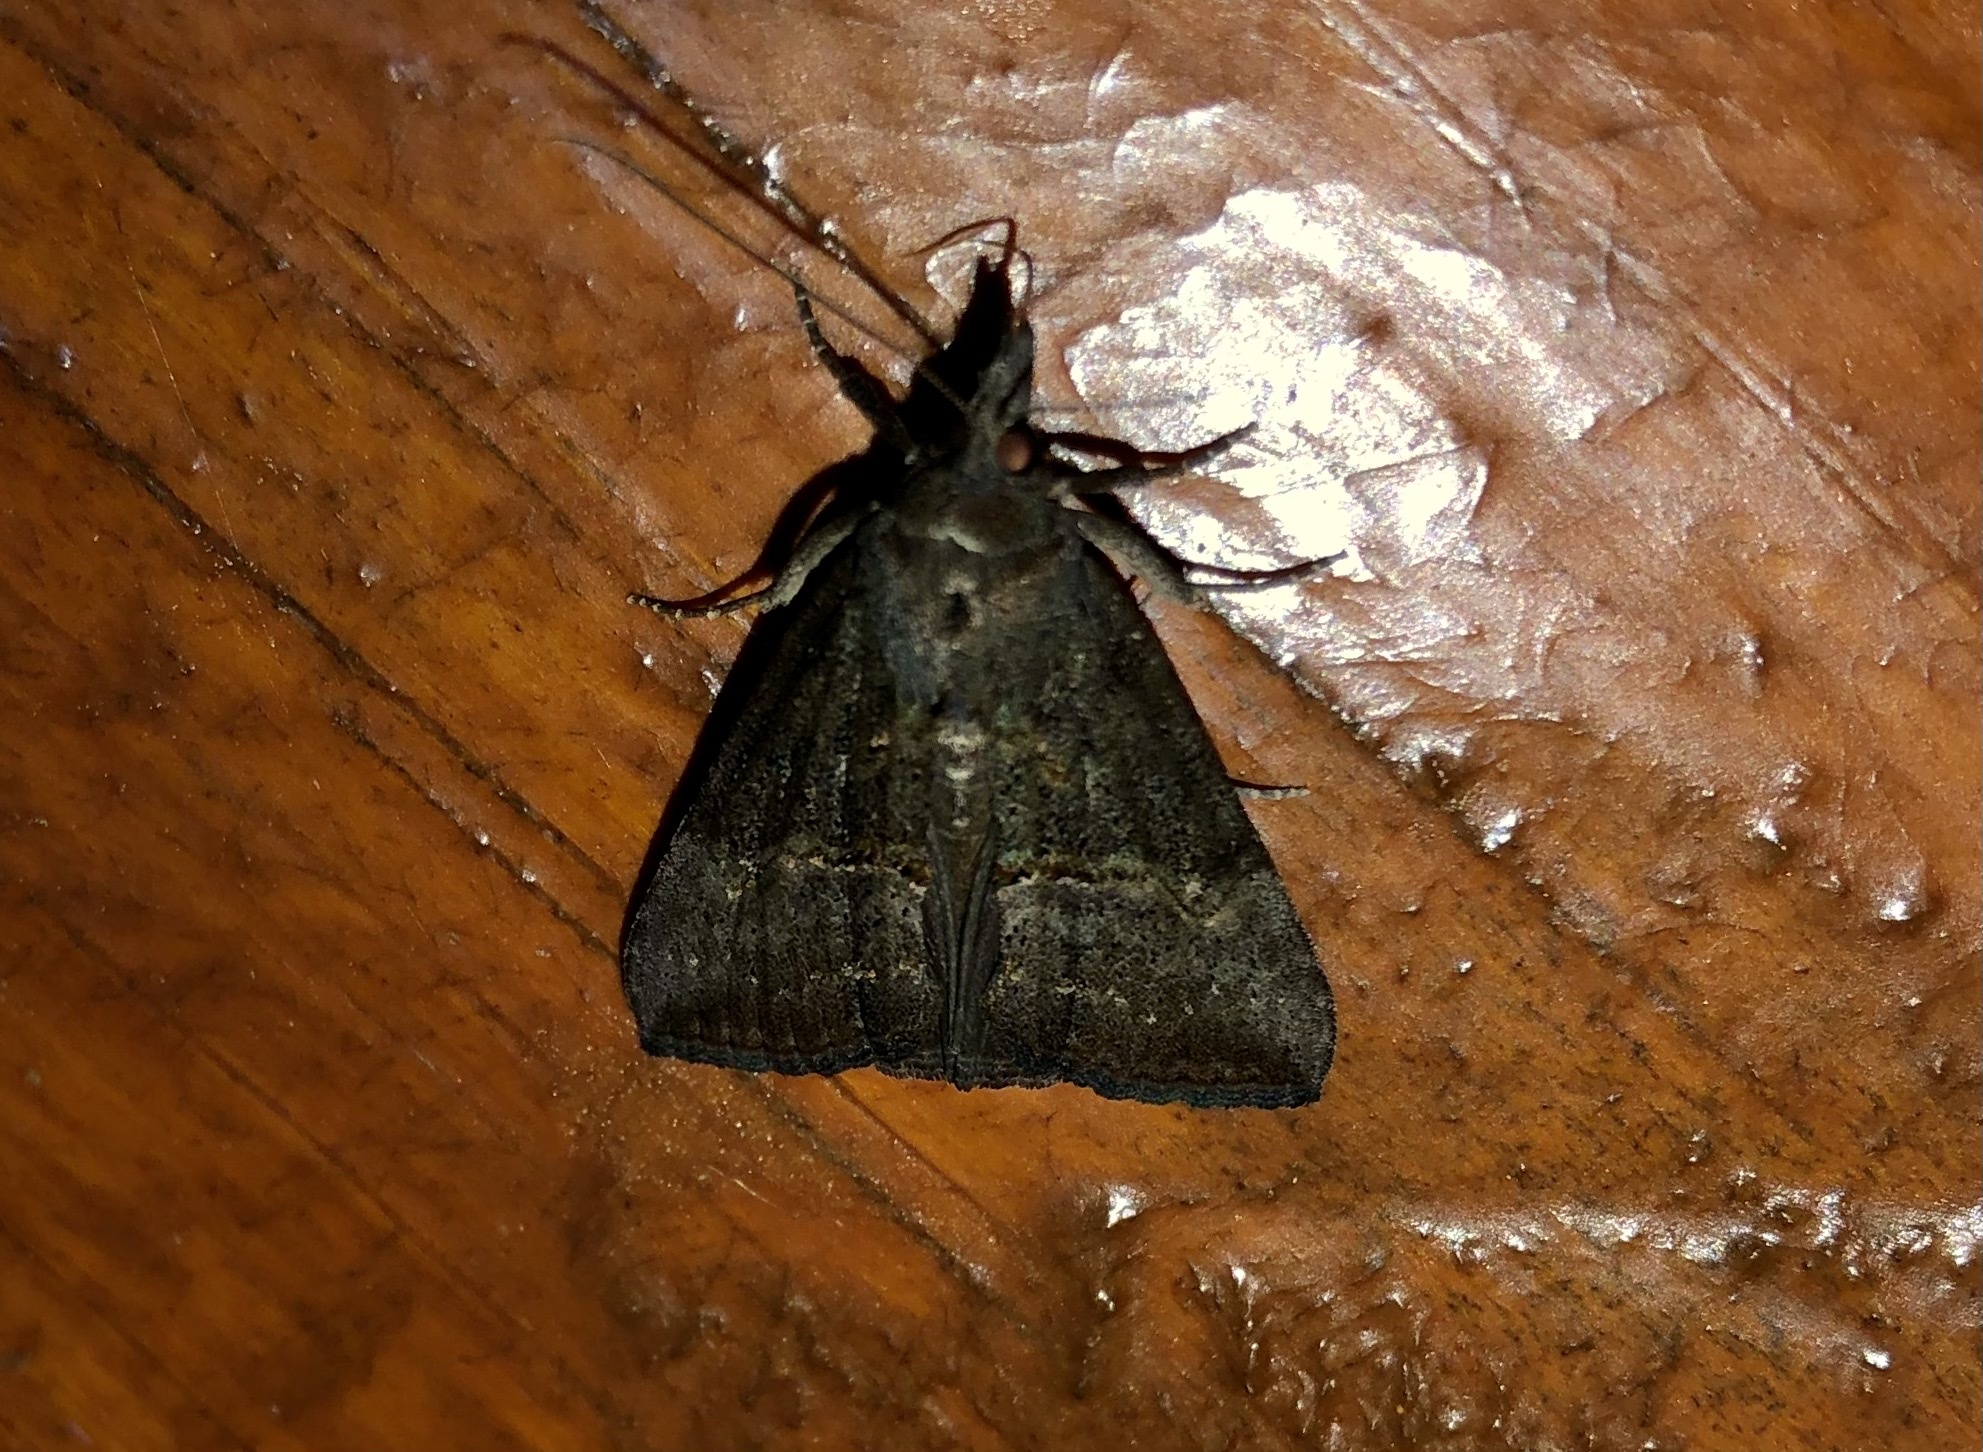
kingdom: Animalia
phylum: Arthropoda
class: Insecta
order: Lepidoptera
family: Erebidae
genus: Hypena
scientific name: Hypena scabra
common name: Green cloverworm
